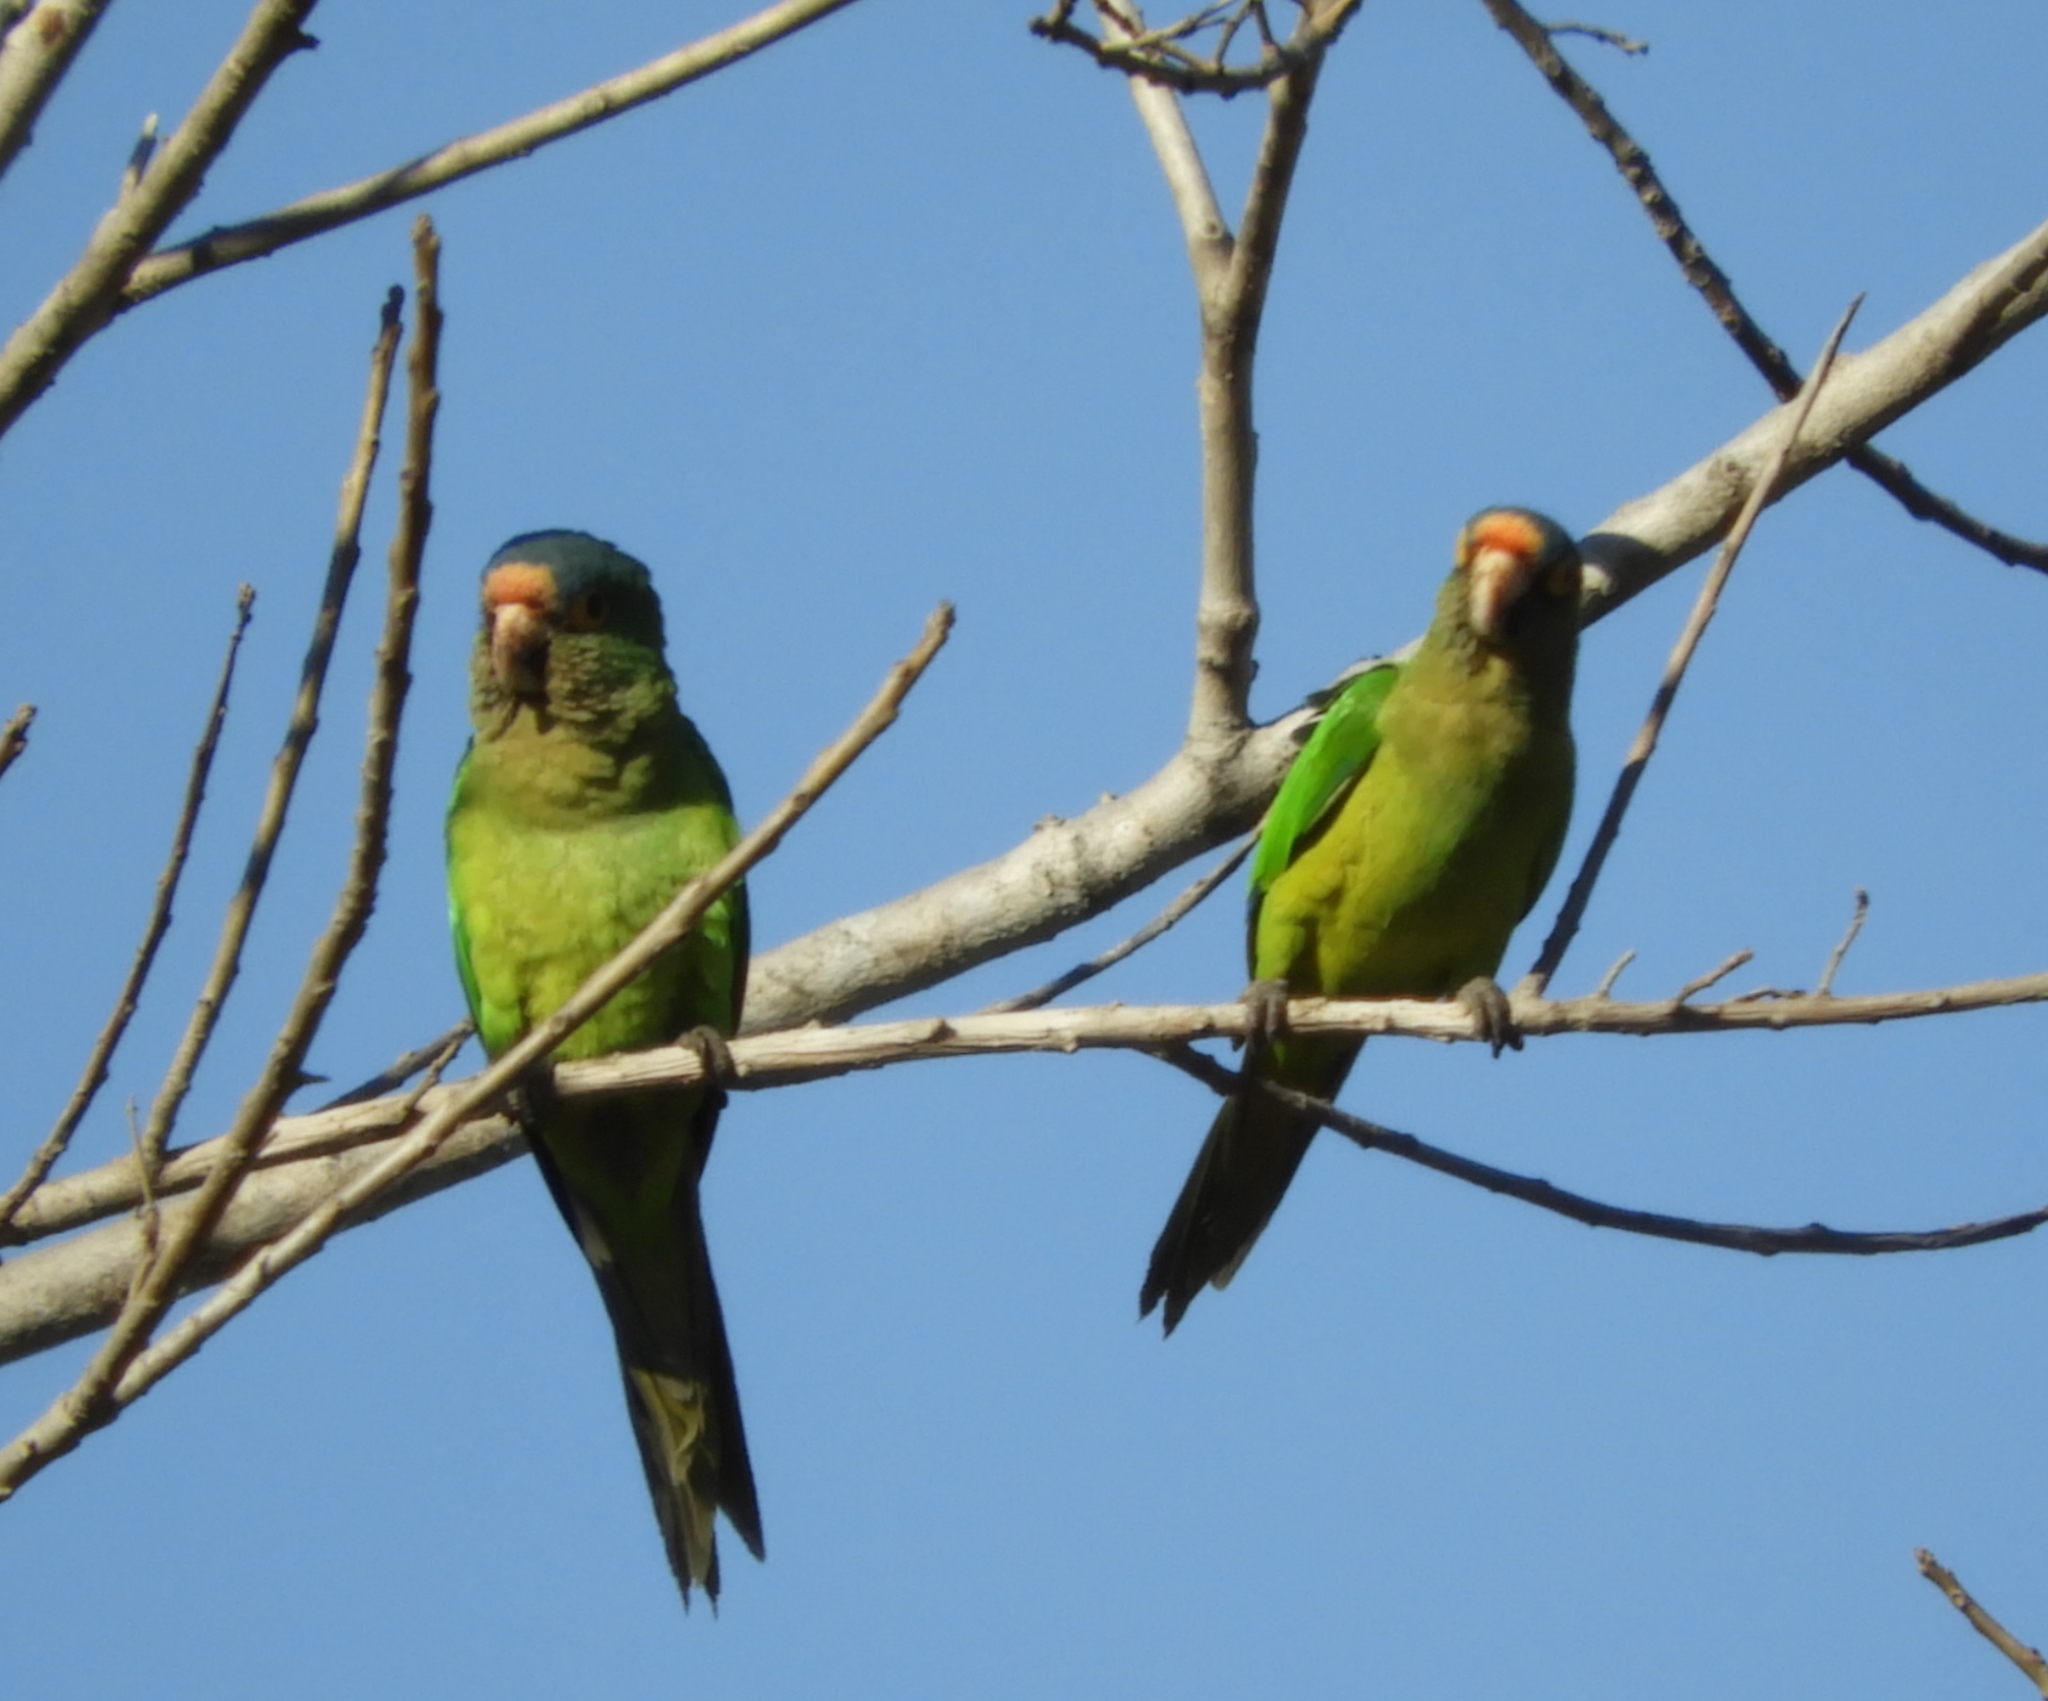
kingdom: Animalia
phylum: Chordata
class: Aves
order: Psittaciformes
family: Psittacidae
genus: Aratinga
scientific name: Aratinga canicularis
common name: Orange-fronted parakeet
